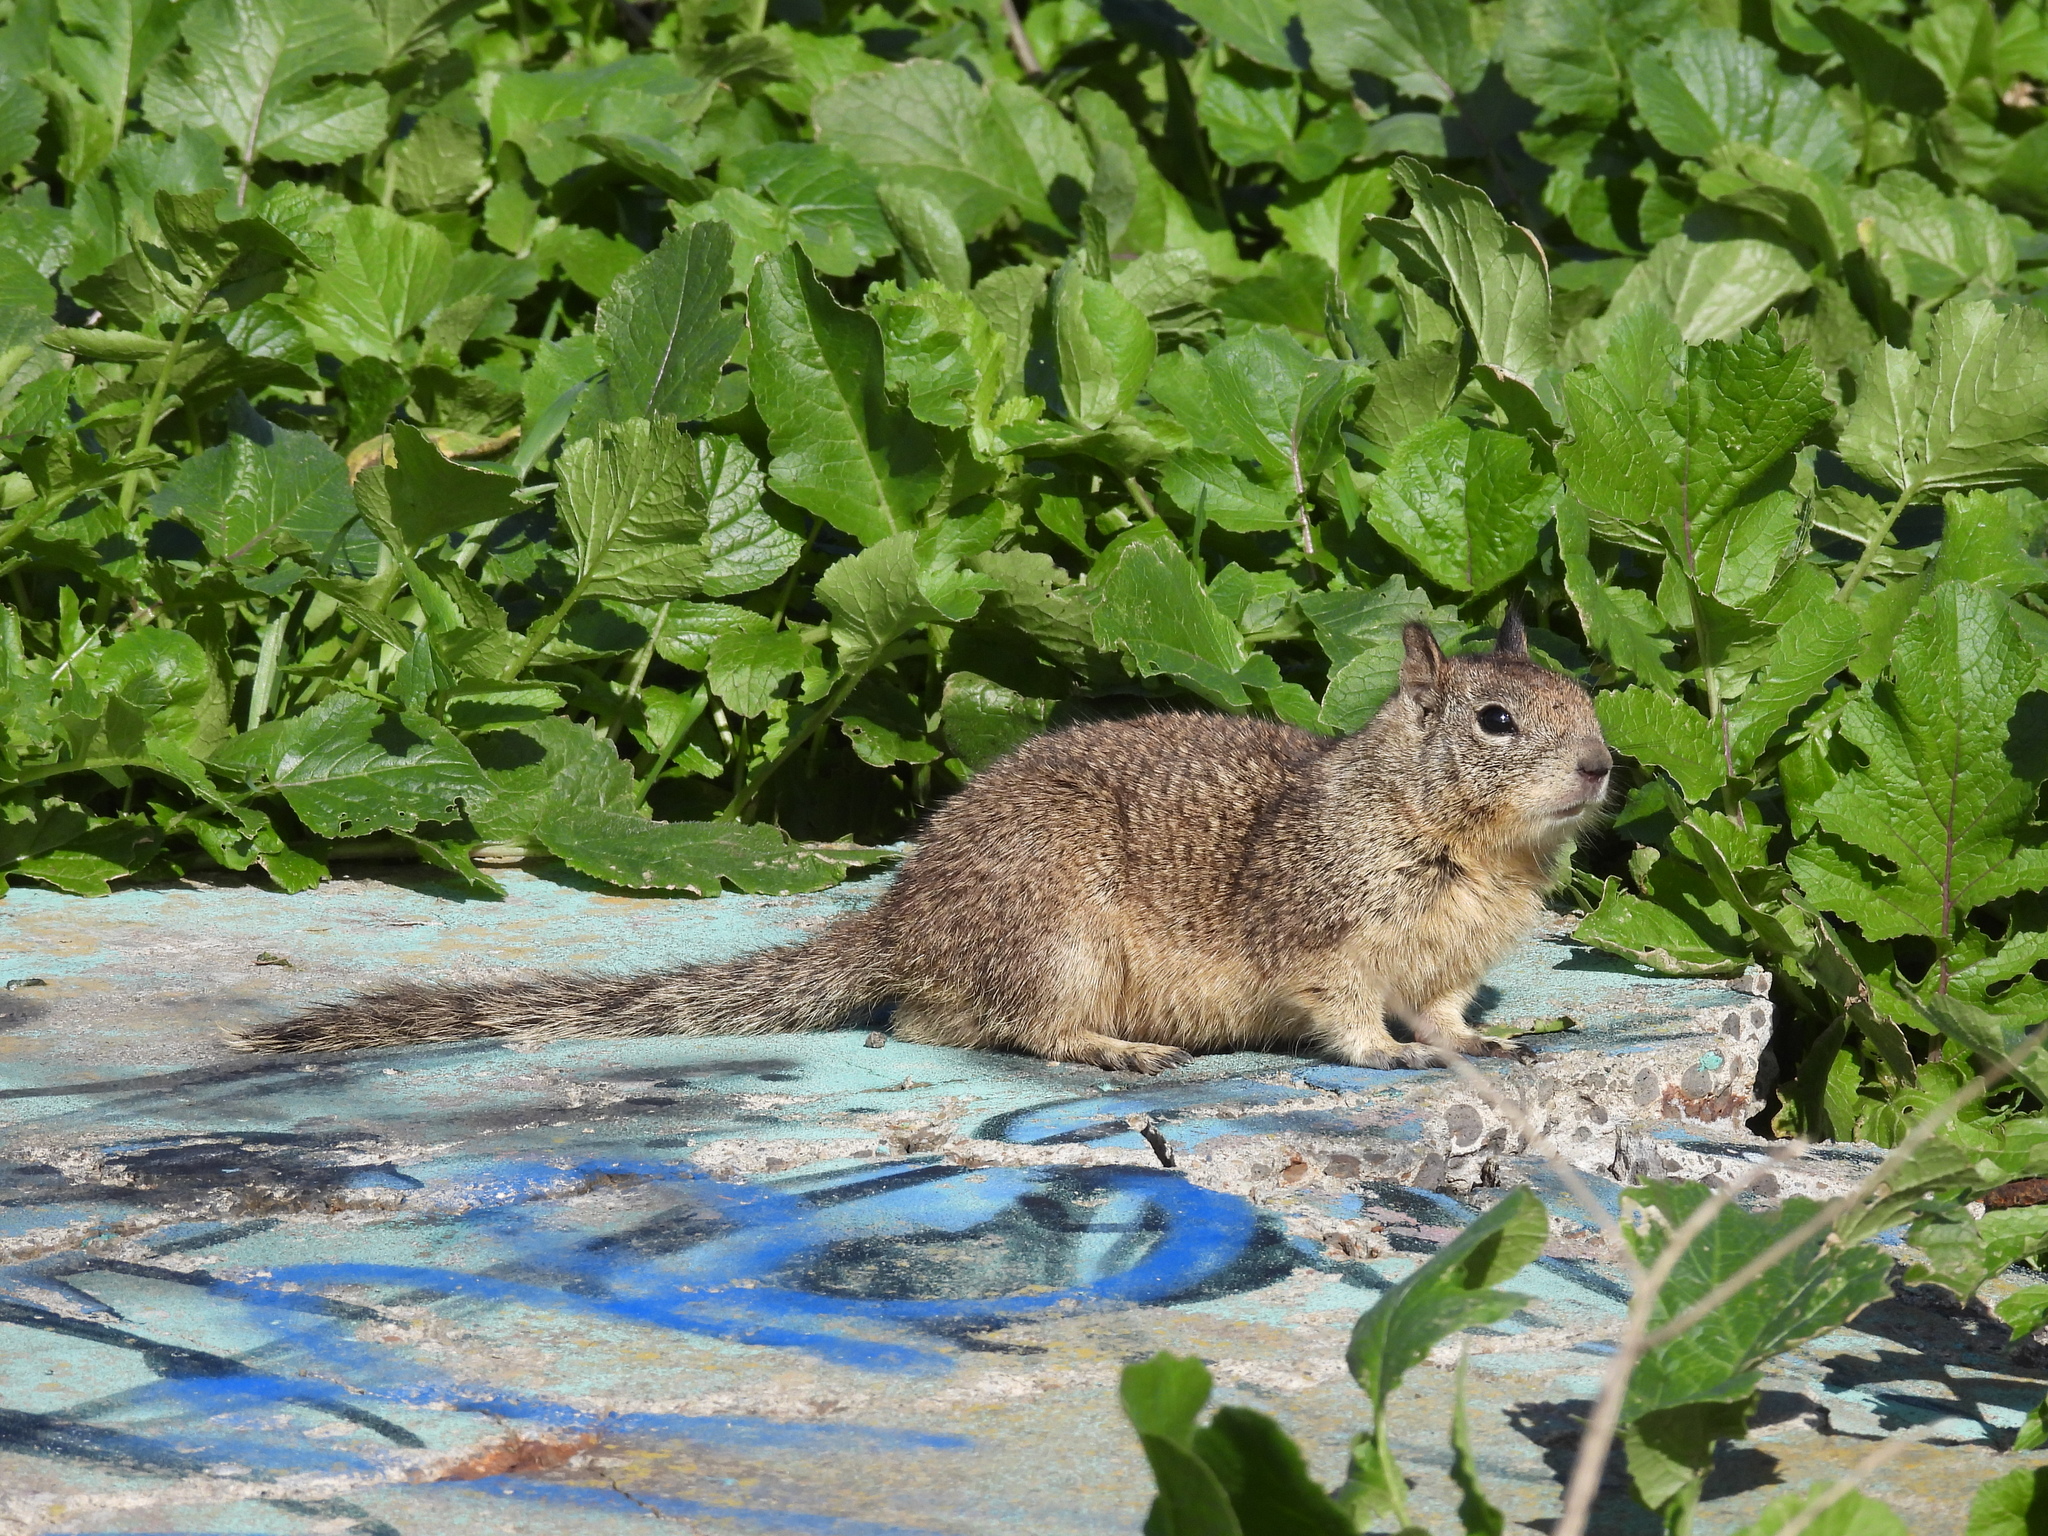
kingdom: Animalia
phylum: Chordata
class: Mammalia
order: Rodentia
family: Sciuridae
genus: Otospermophilus
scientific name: Otospermophilus beecheyi
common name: California ground squirrel
